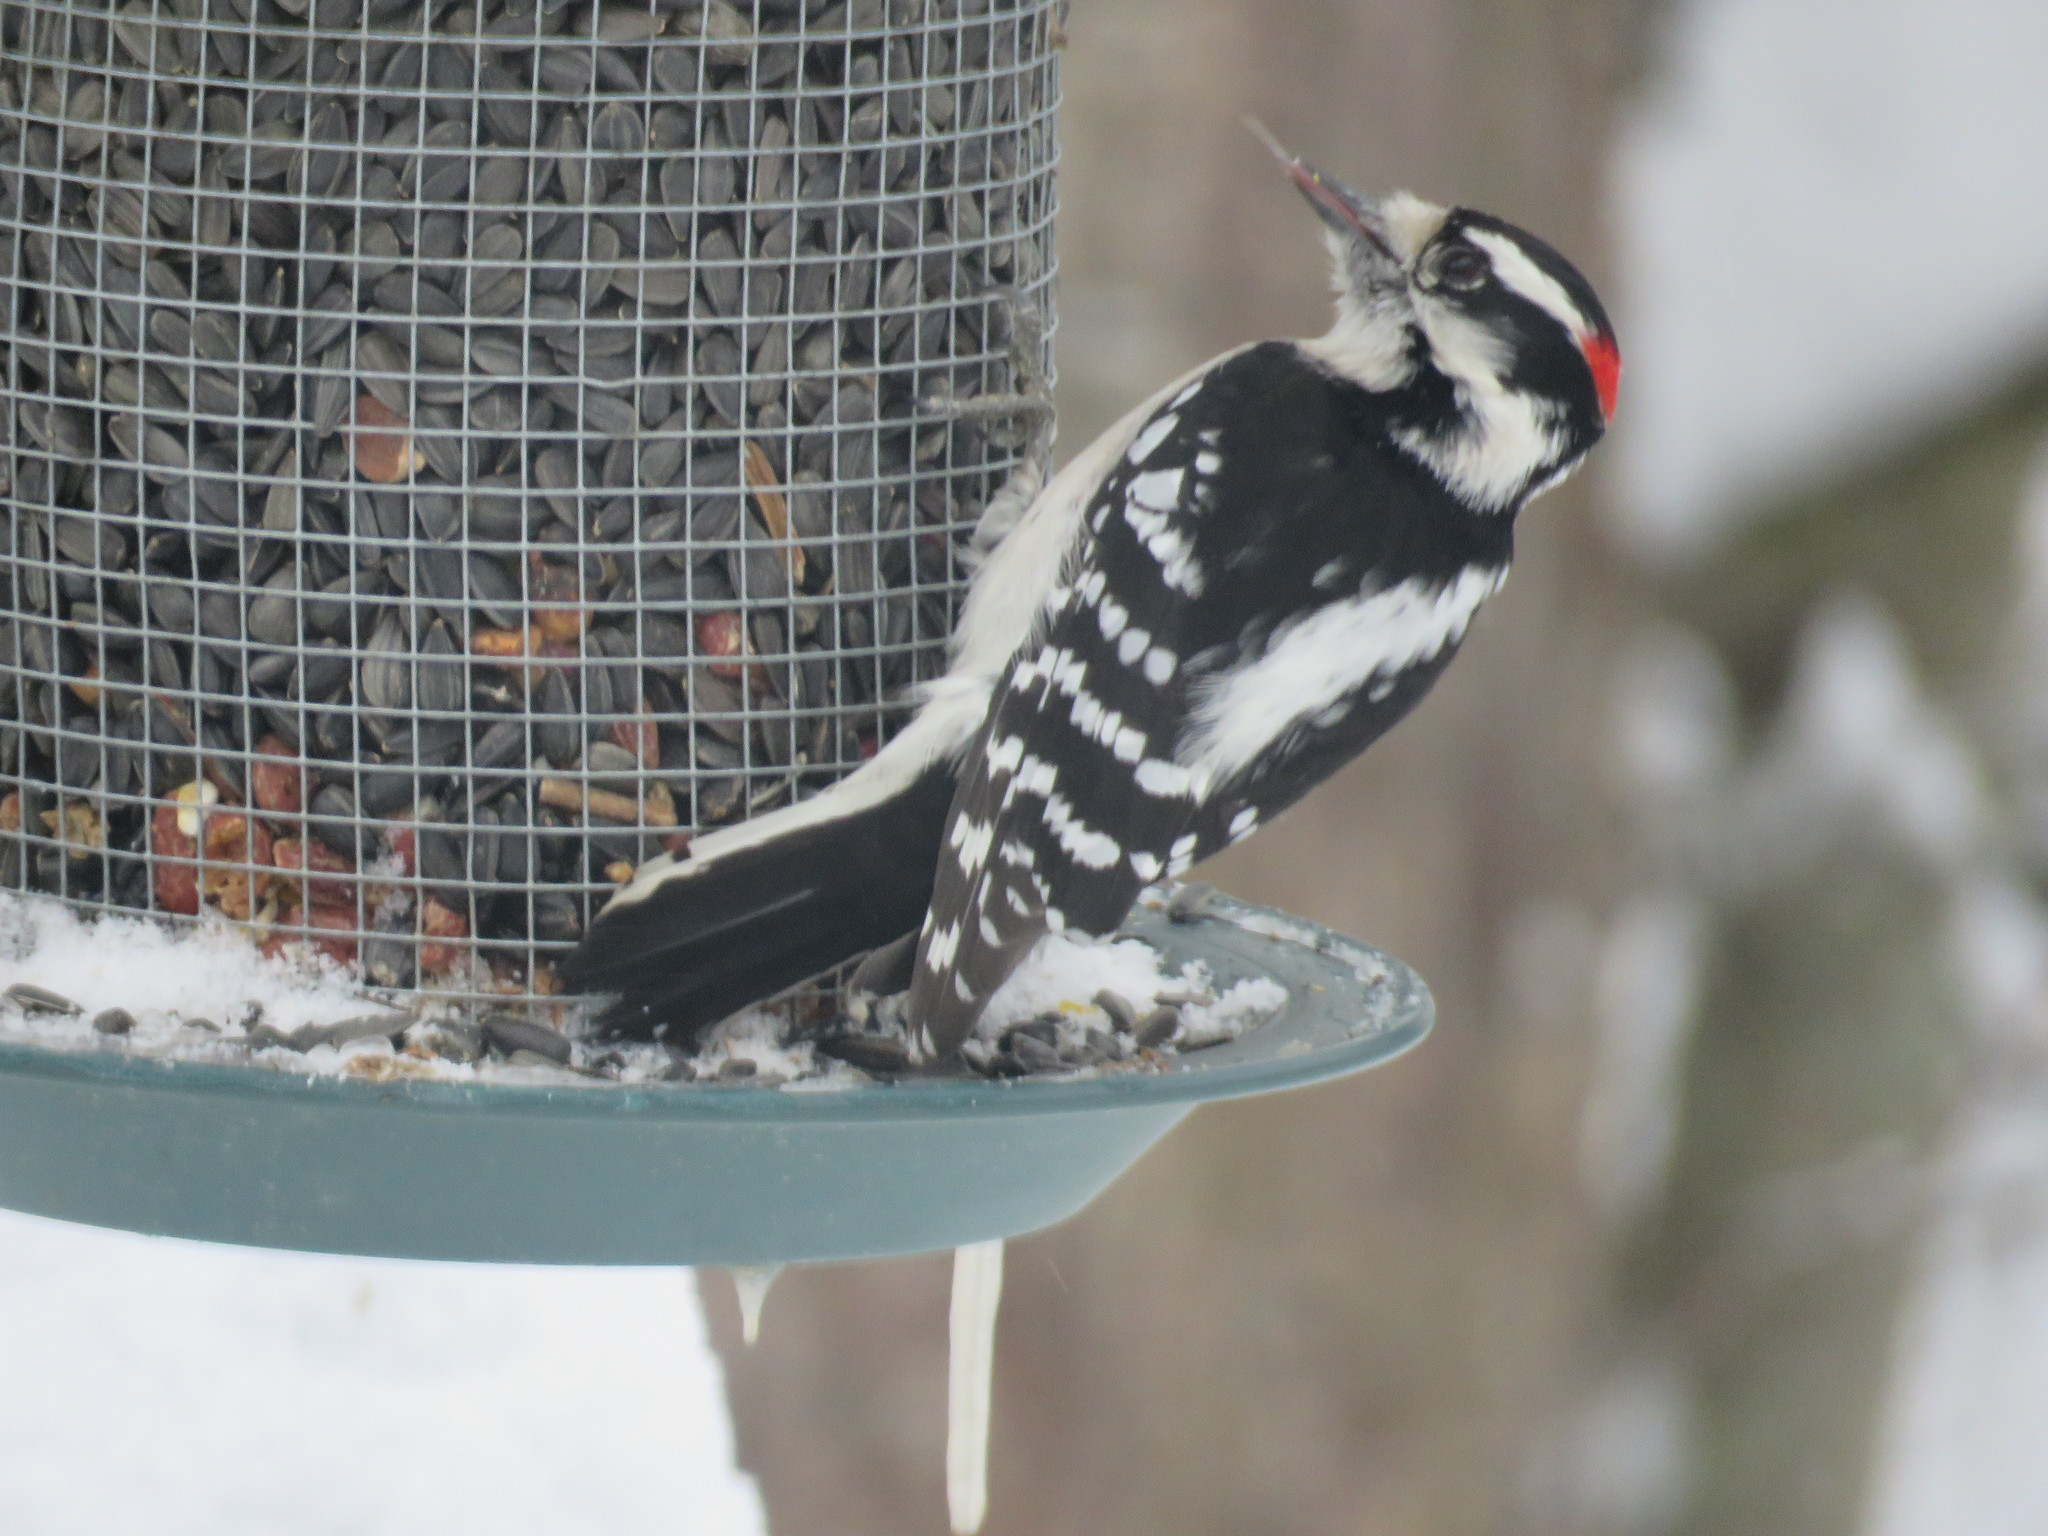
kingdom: Animalia
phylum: Chordata
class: Aves
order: Piciformes
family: Picidae
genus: Dryobates
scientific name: Dryobates pubescens
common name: Downy woodpecker
